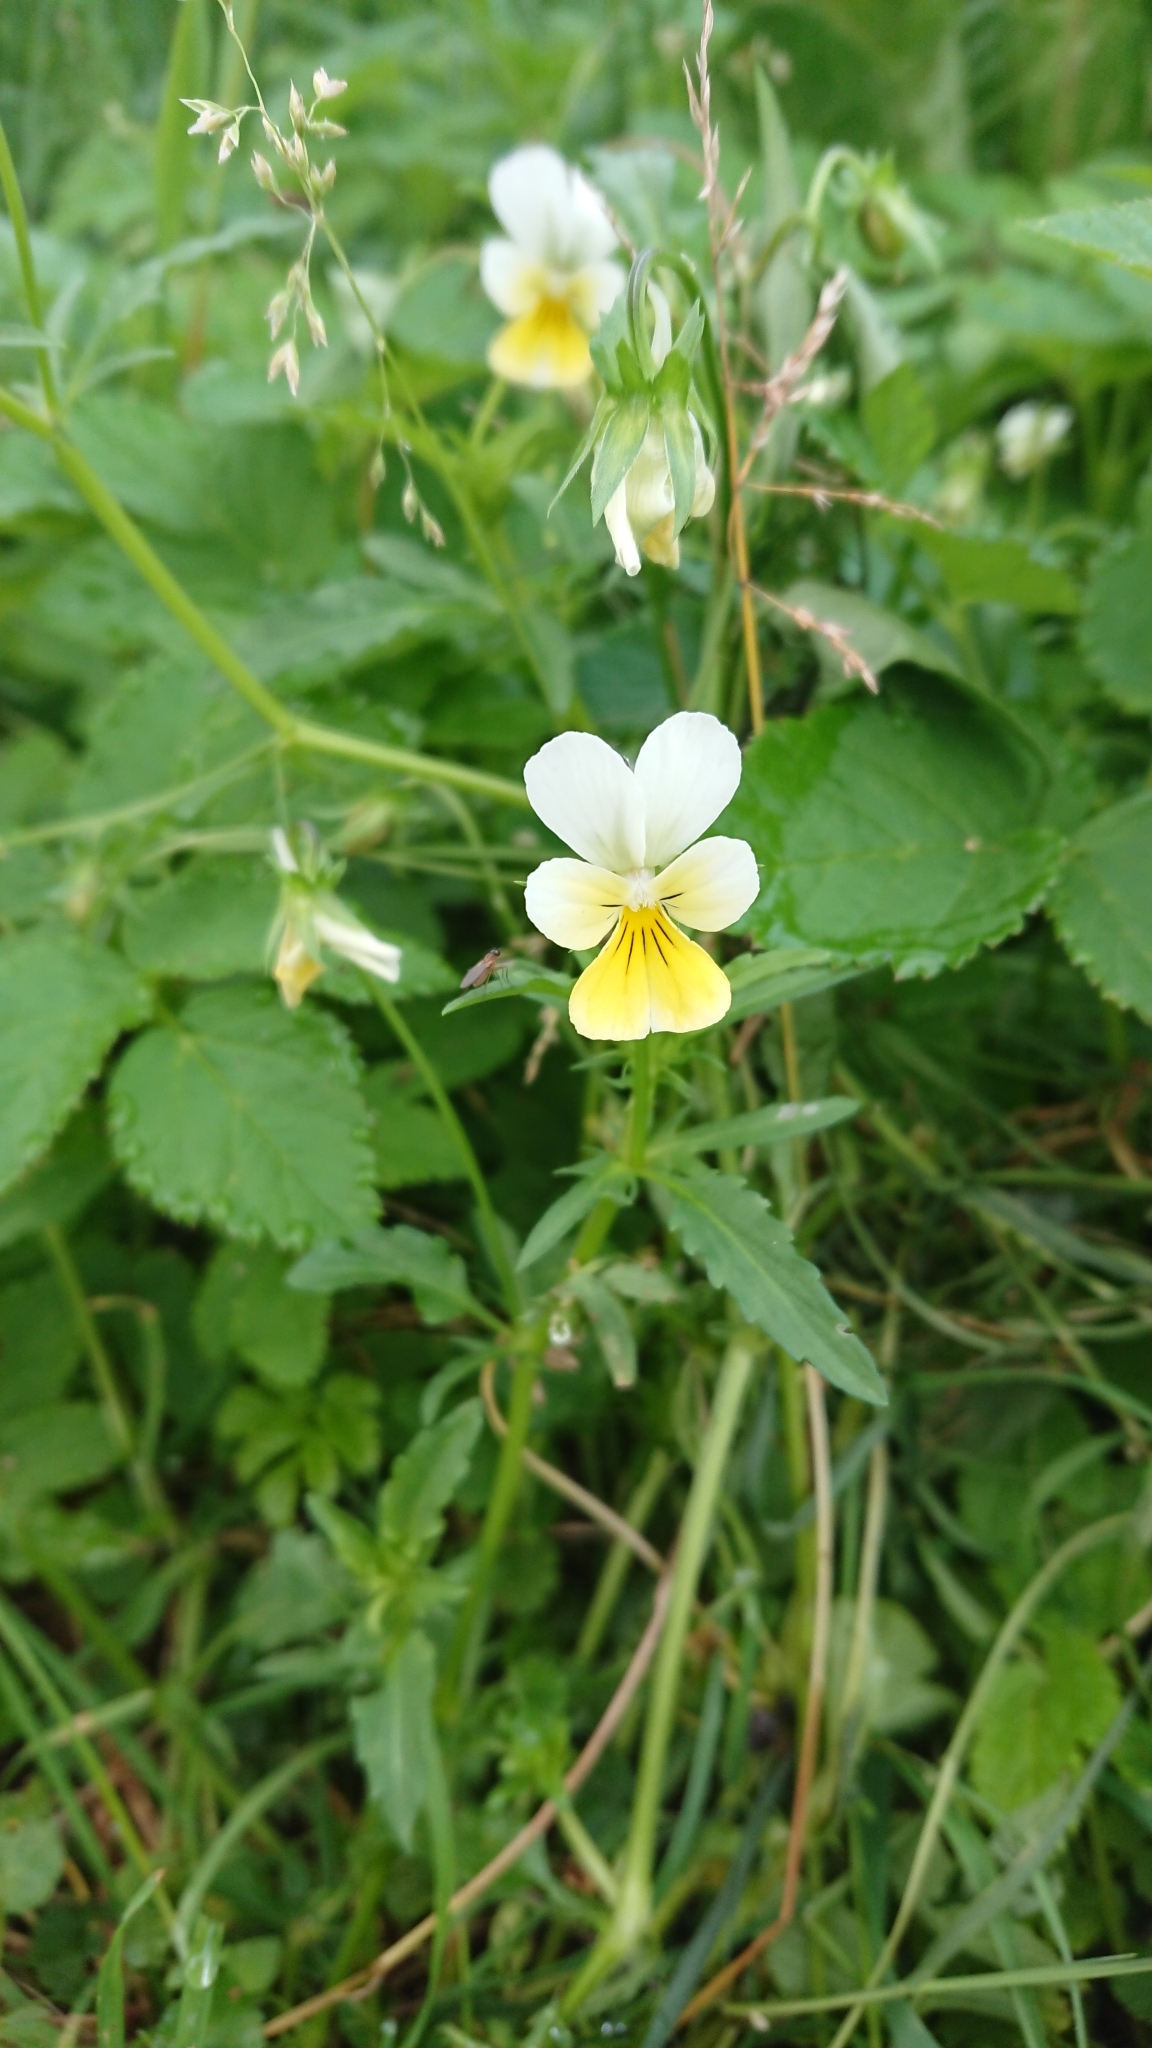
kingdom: Plantae
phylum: Tracheophyta
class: Magnoliopsida
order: Malpighiales
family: Violaceae
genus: Viola
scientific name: Viola arvensis
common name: Field pansy
